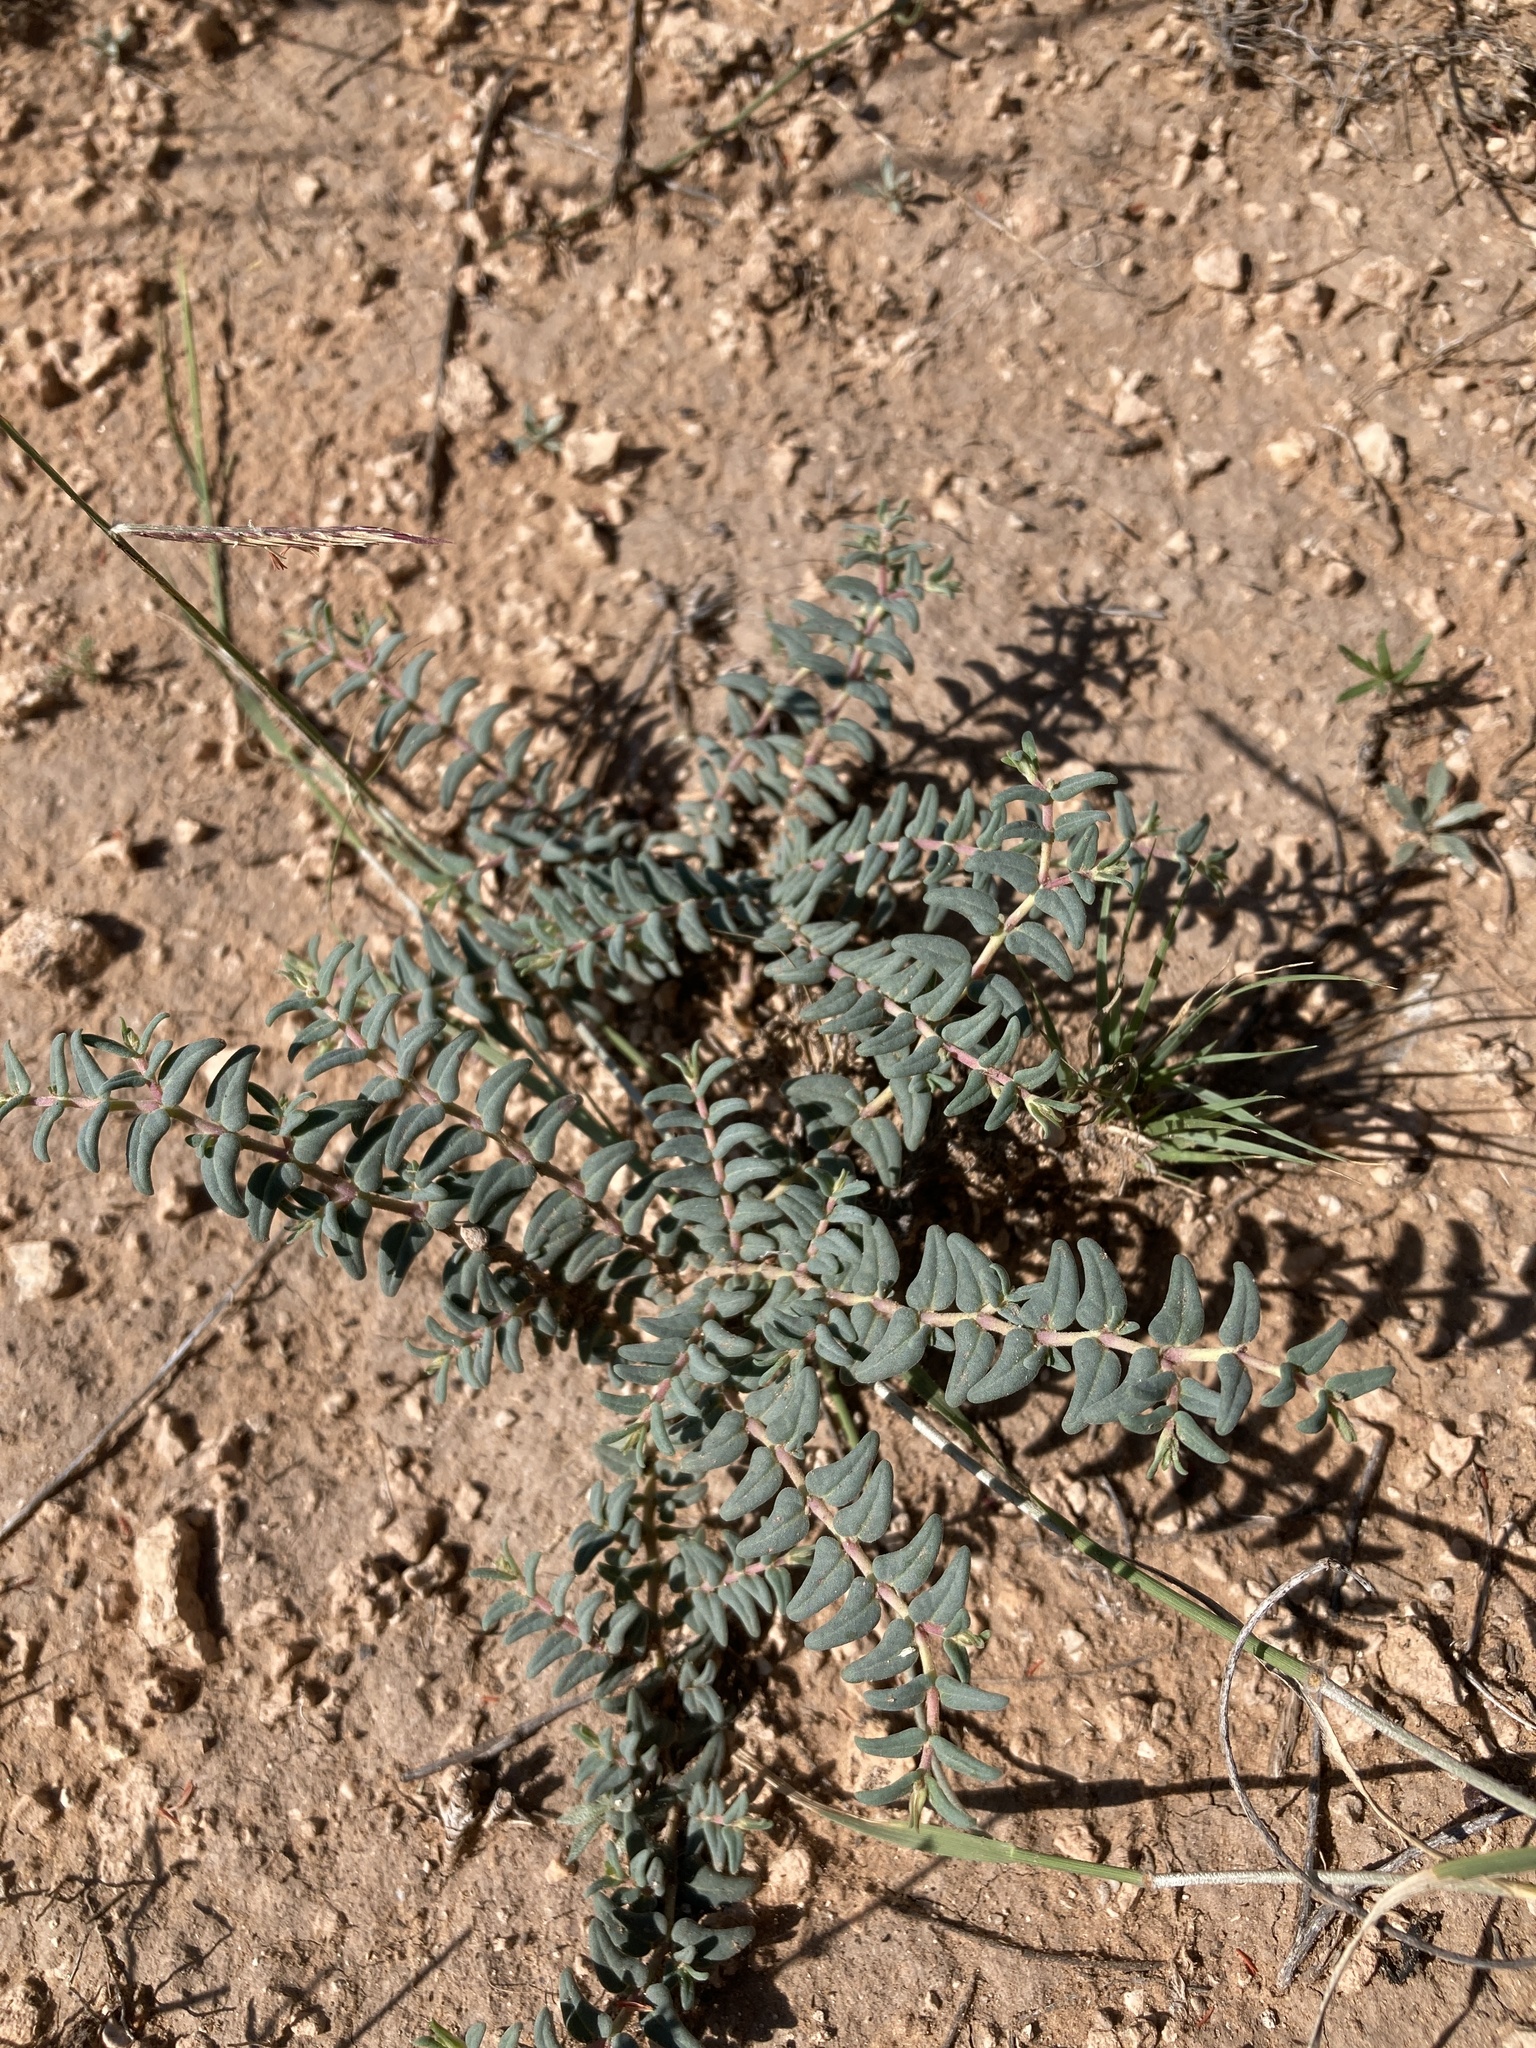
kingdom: Plantae
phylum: Tracheophyta
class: Magnoliopsida
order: Malpighiales
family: Euphorbiaceae
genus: Euphorbia
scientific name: Euphorbia lata
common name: Hoary euphorbia
